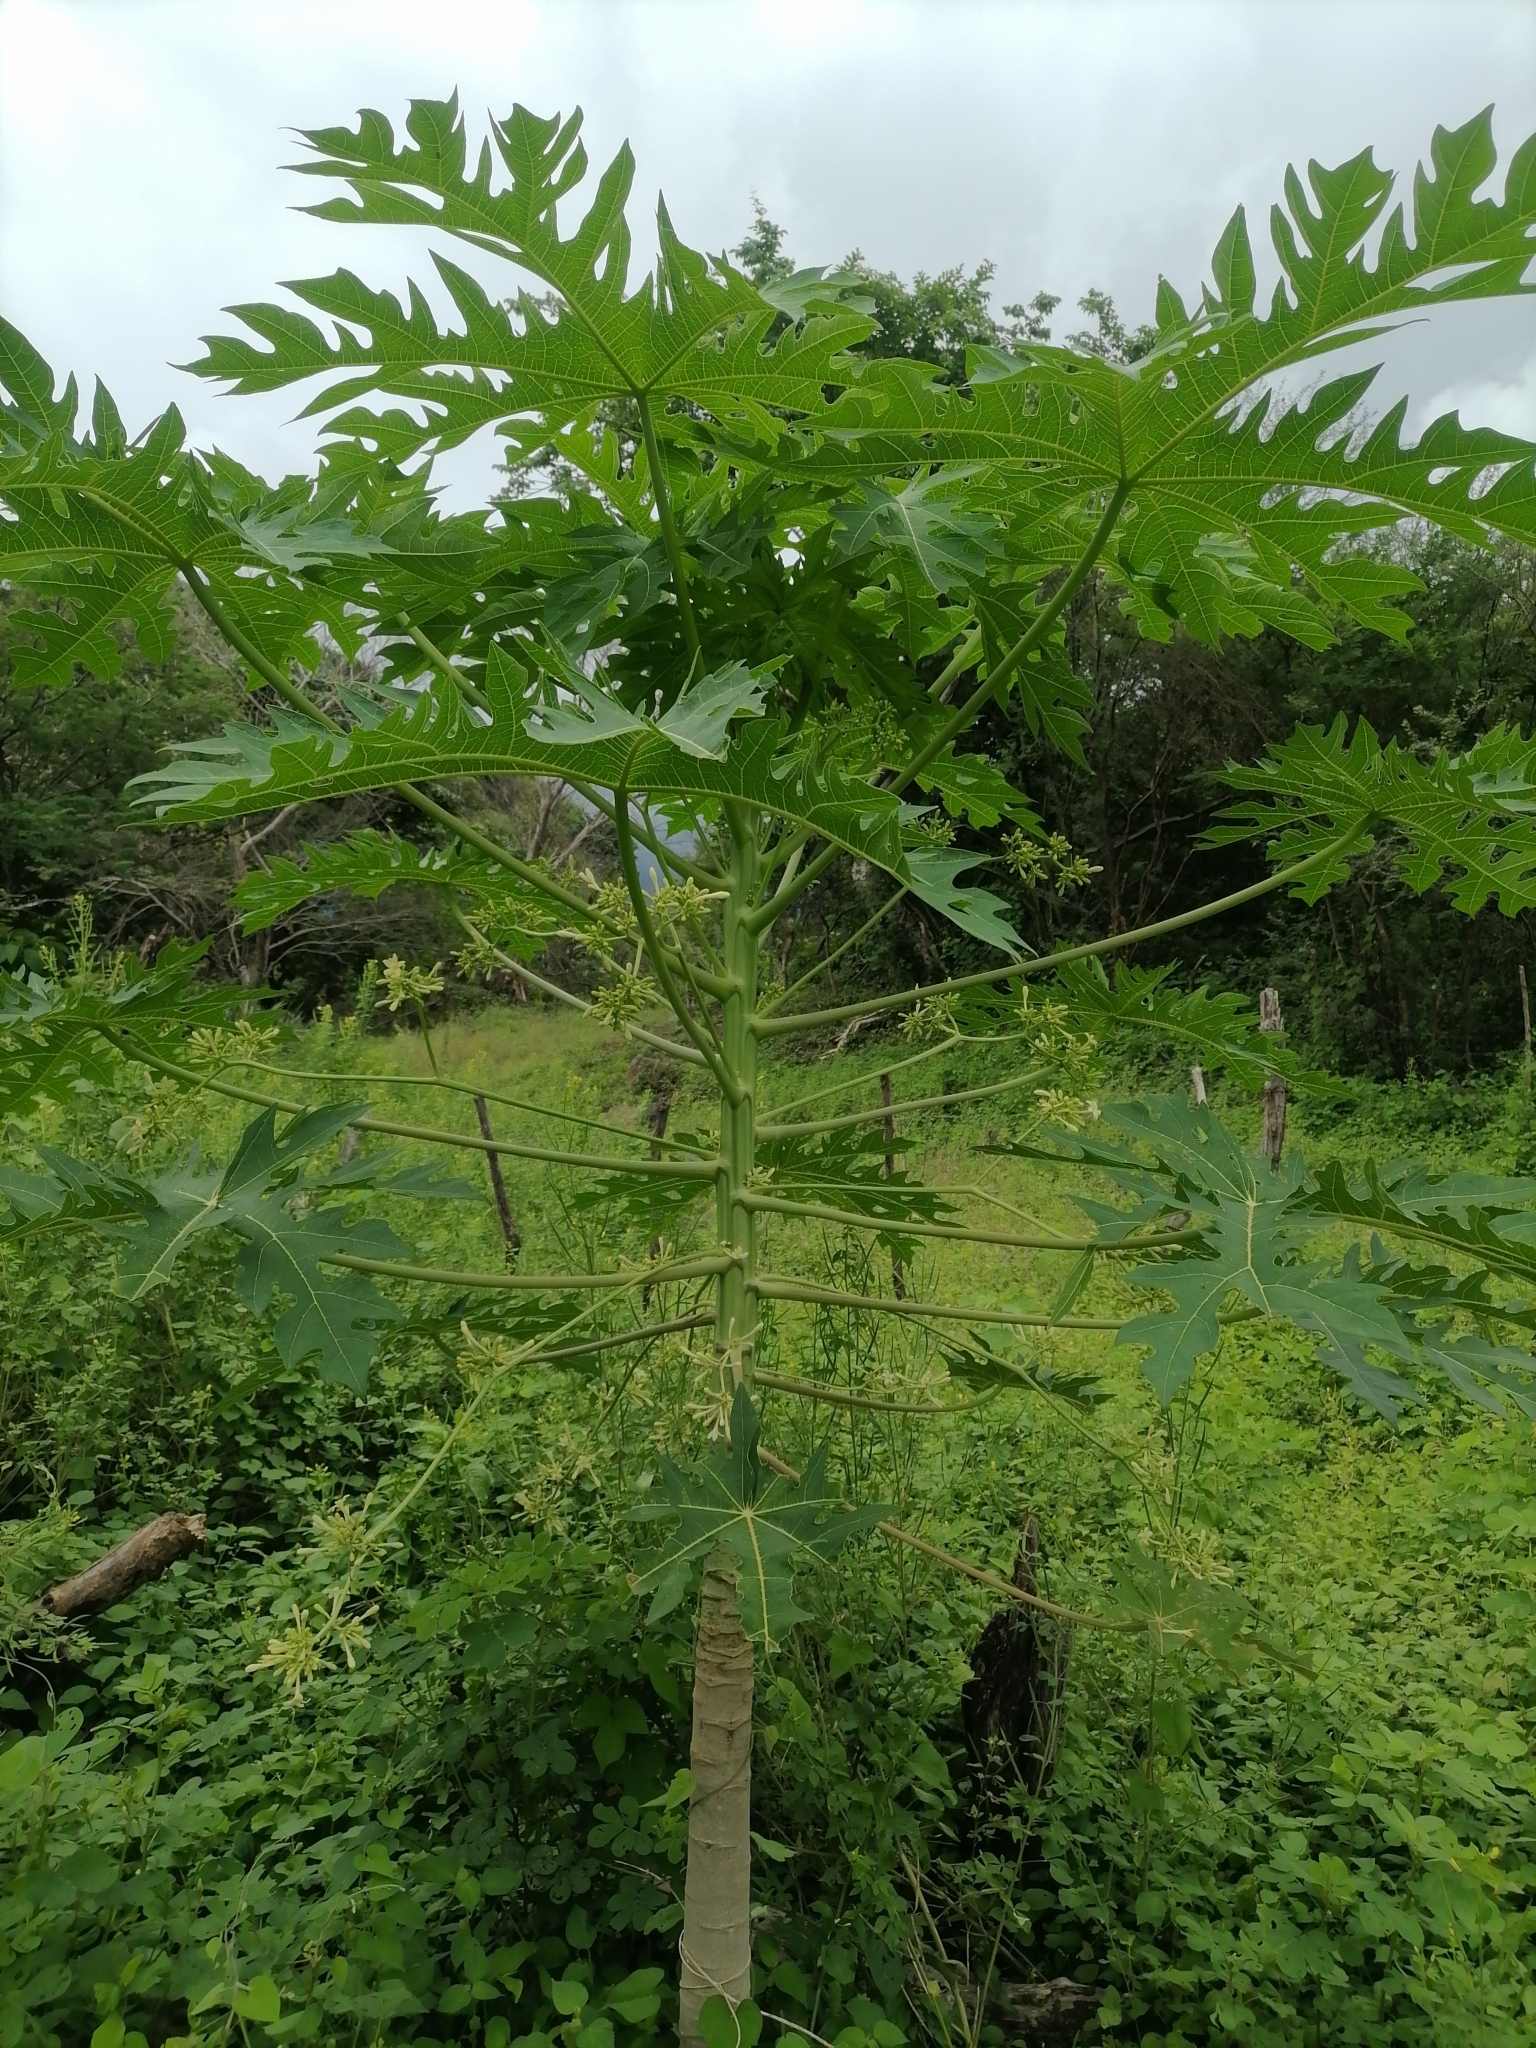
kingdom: Plantae
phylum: Tracheophyta
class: Magnoliopsida
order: Brassicales
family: Caricaceae
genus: Carica
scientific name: Carica papaya
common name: Papaya
